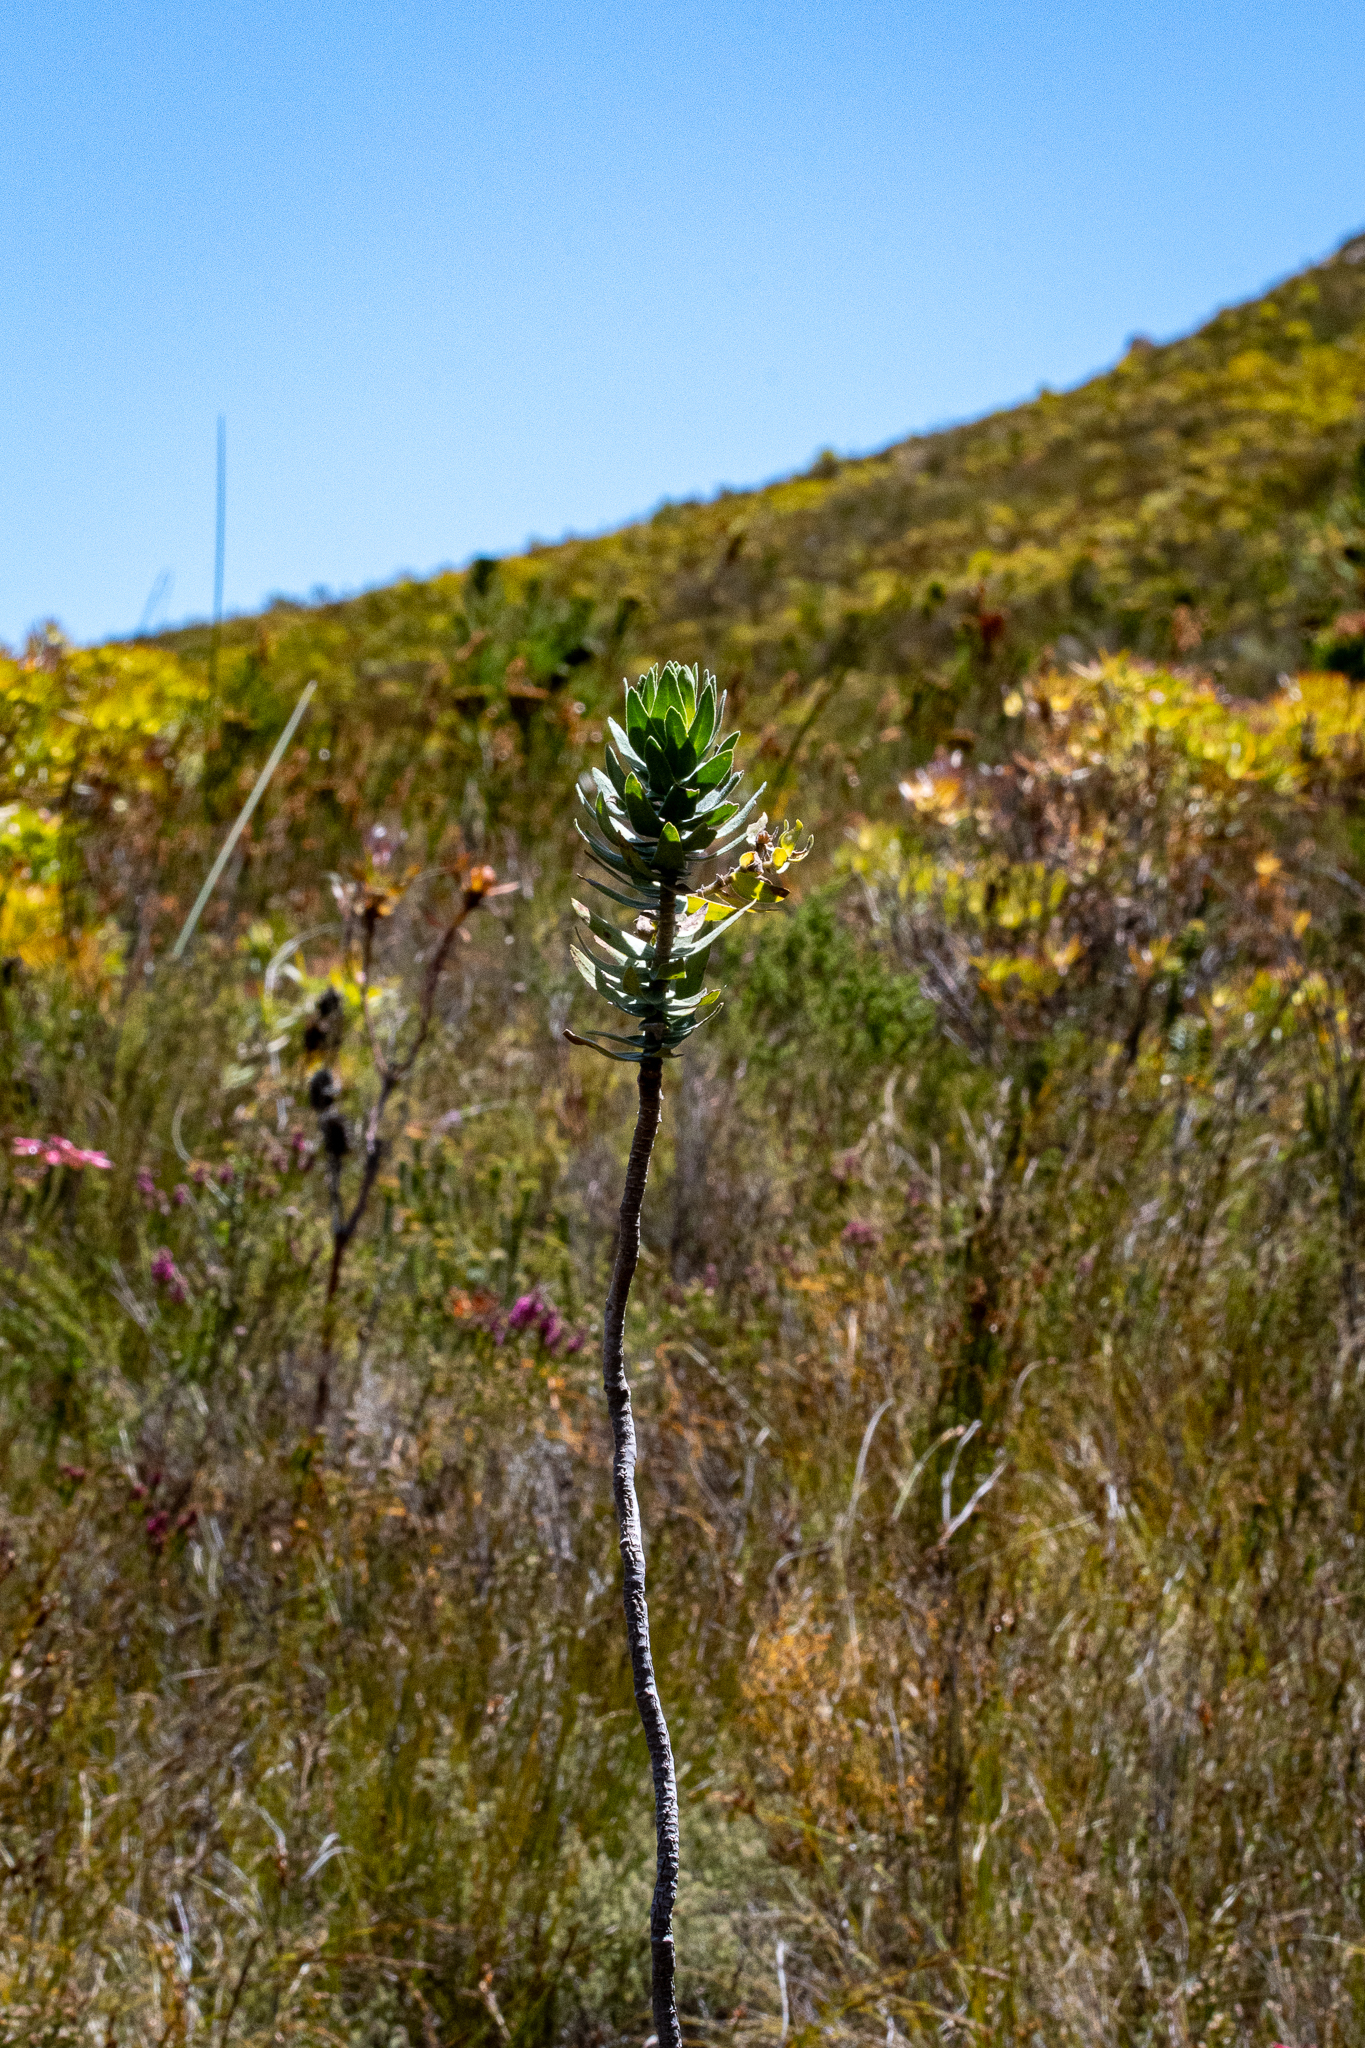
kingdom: Plantae
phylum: Tracheophyta
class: Magnoliopsida
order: Asterales
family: Asteraceae
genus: Osmitopsis
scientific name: Osmitopsis asteriscoides
